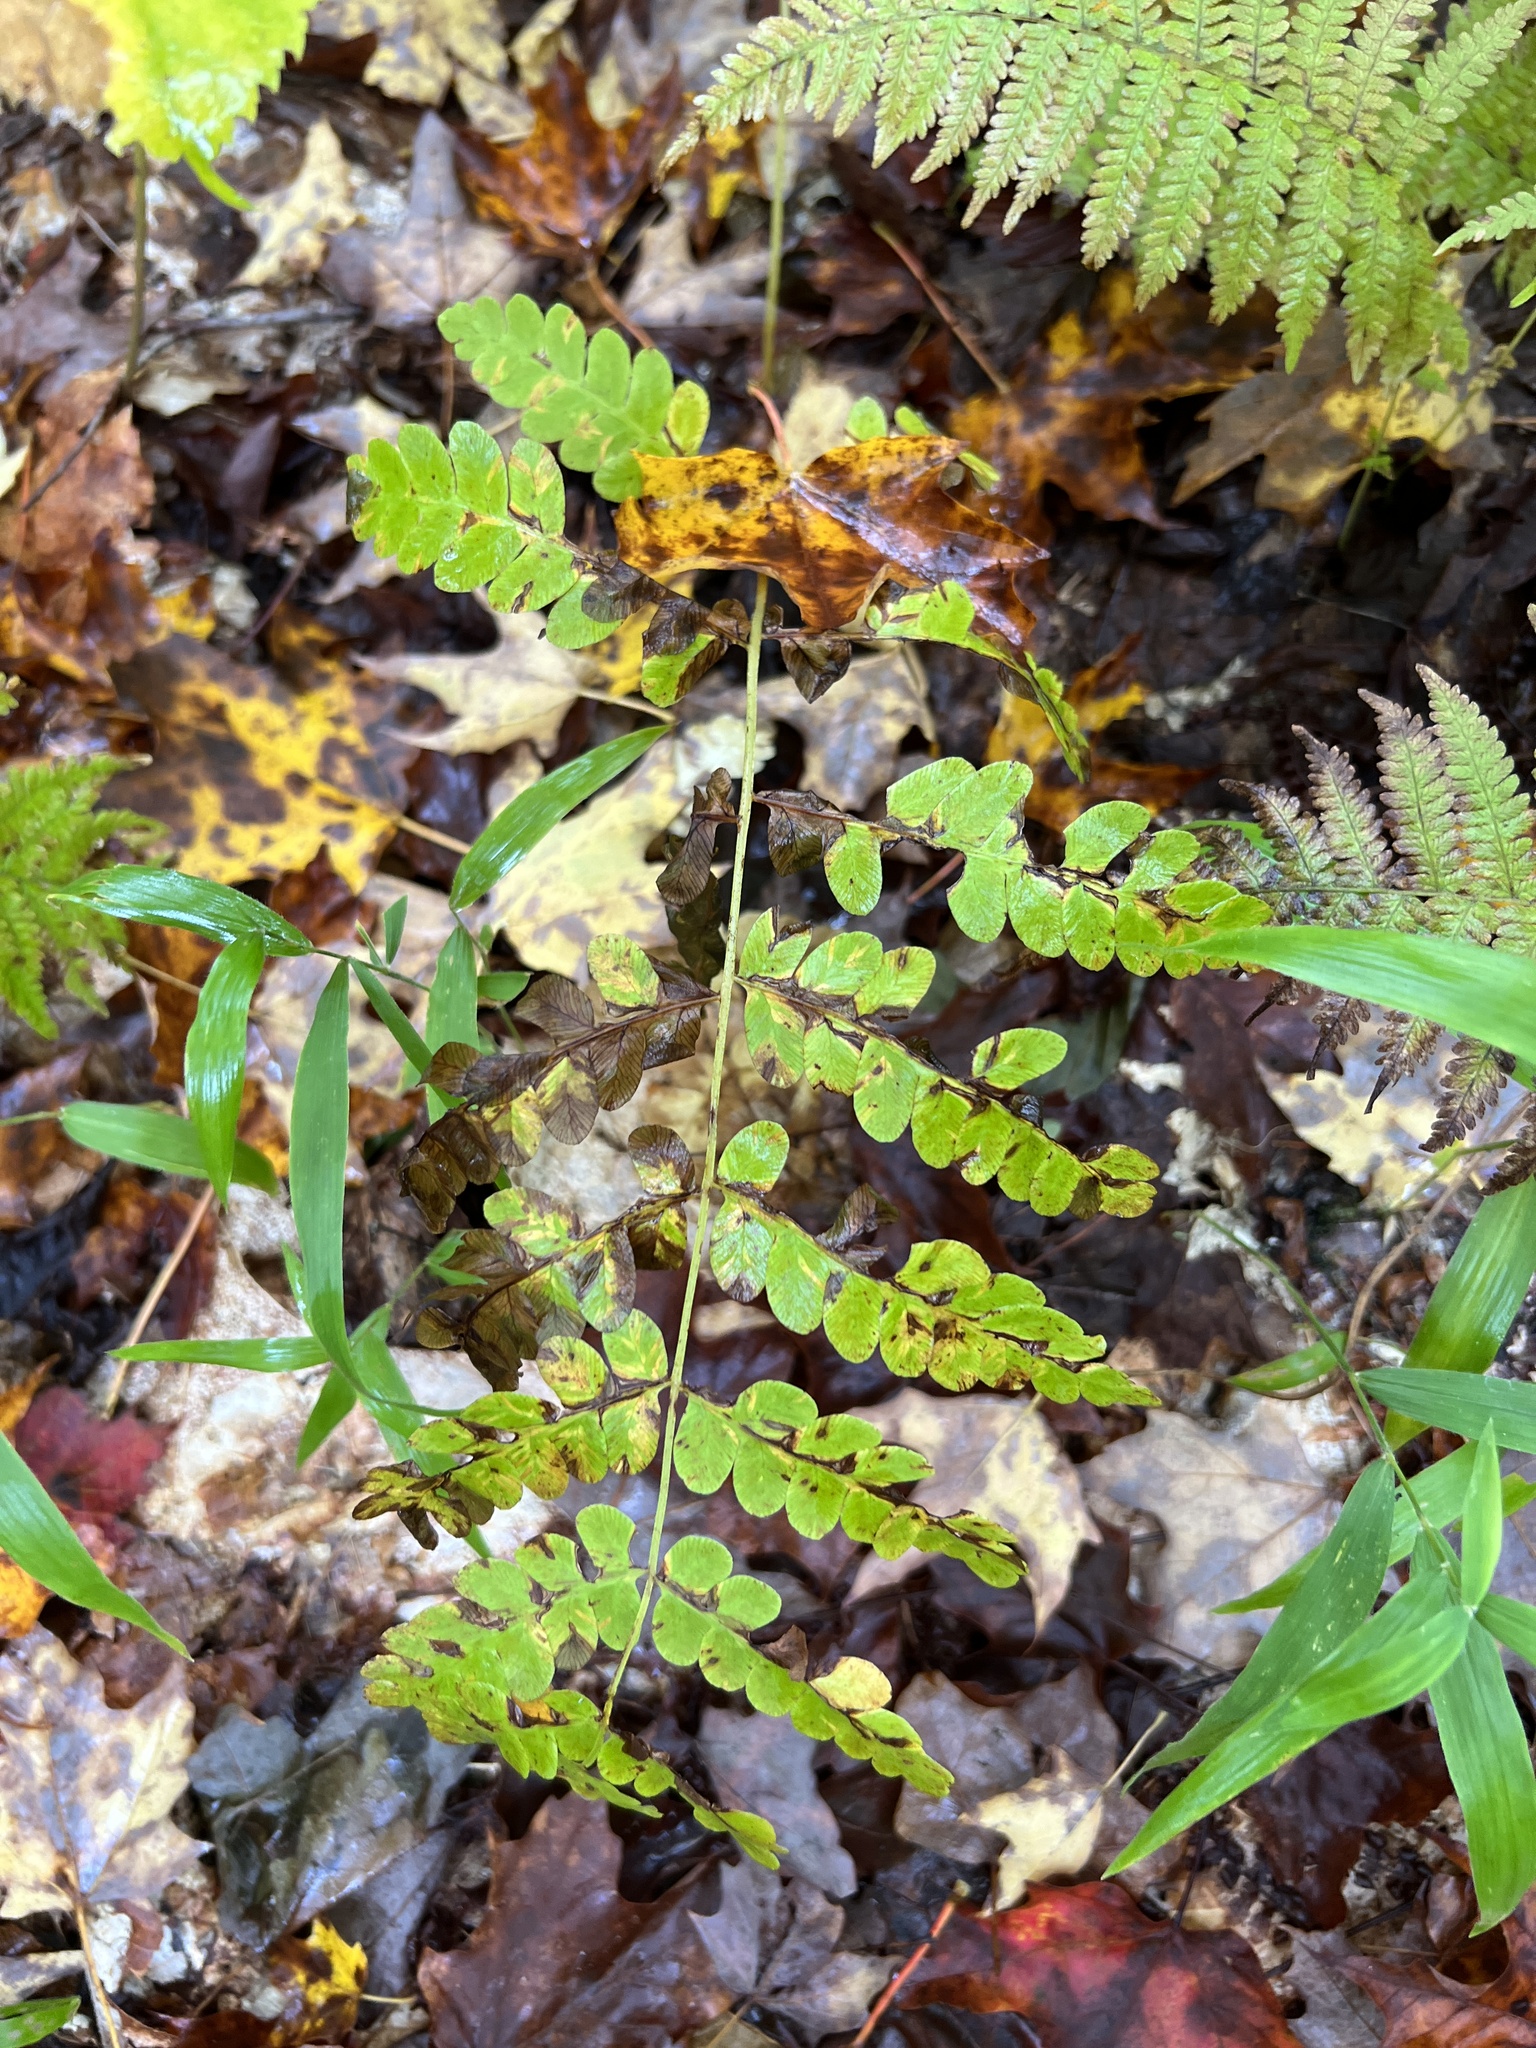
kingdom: Plantae
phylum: Tracheophyta
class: Polypodiopsida
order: Osmundales
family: Osmundaceae
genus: Claytosmunda
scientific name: Claytosmunda claytoniana
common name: Clayton's fern
